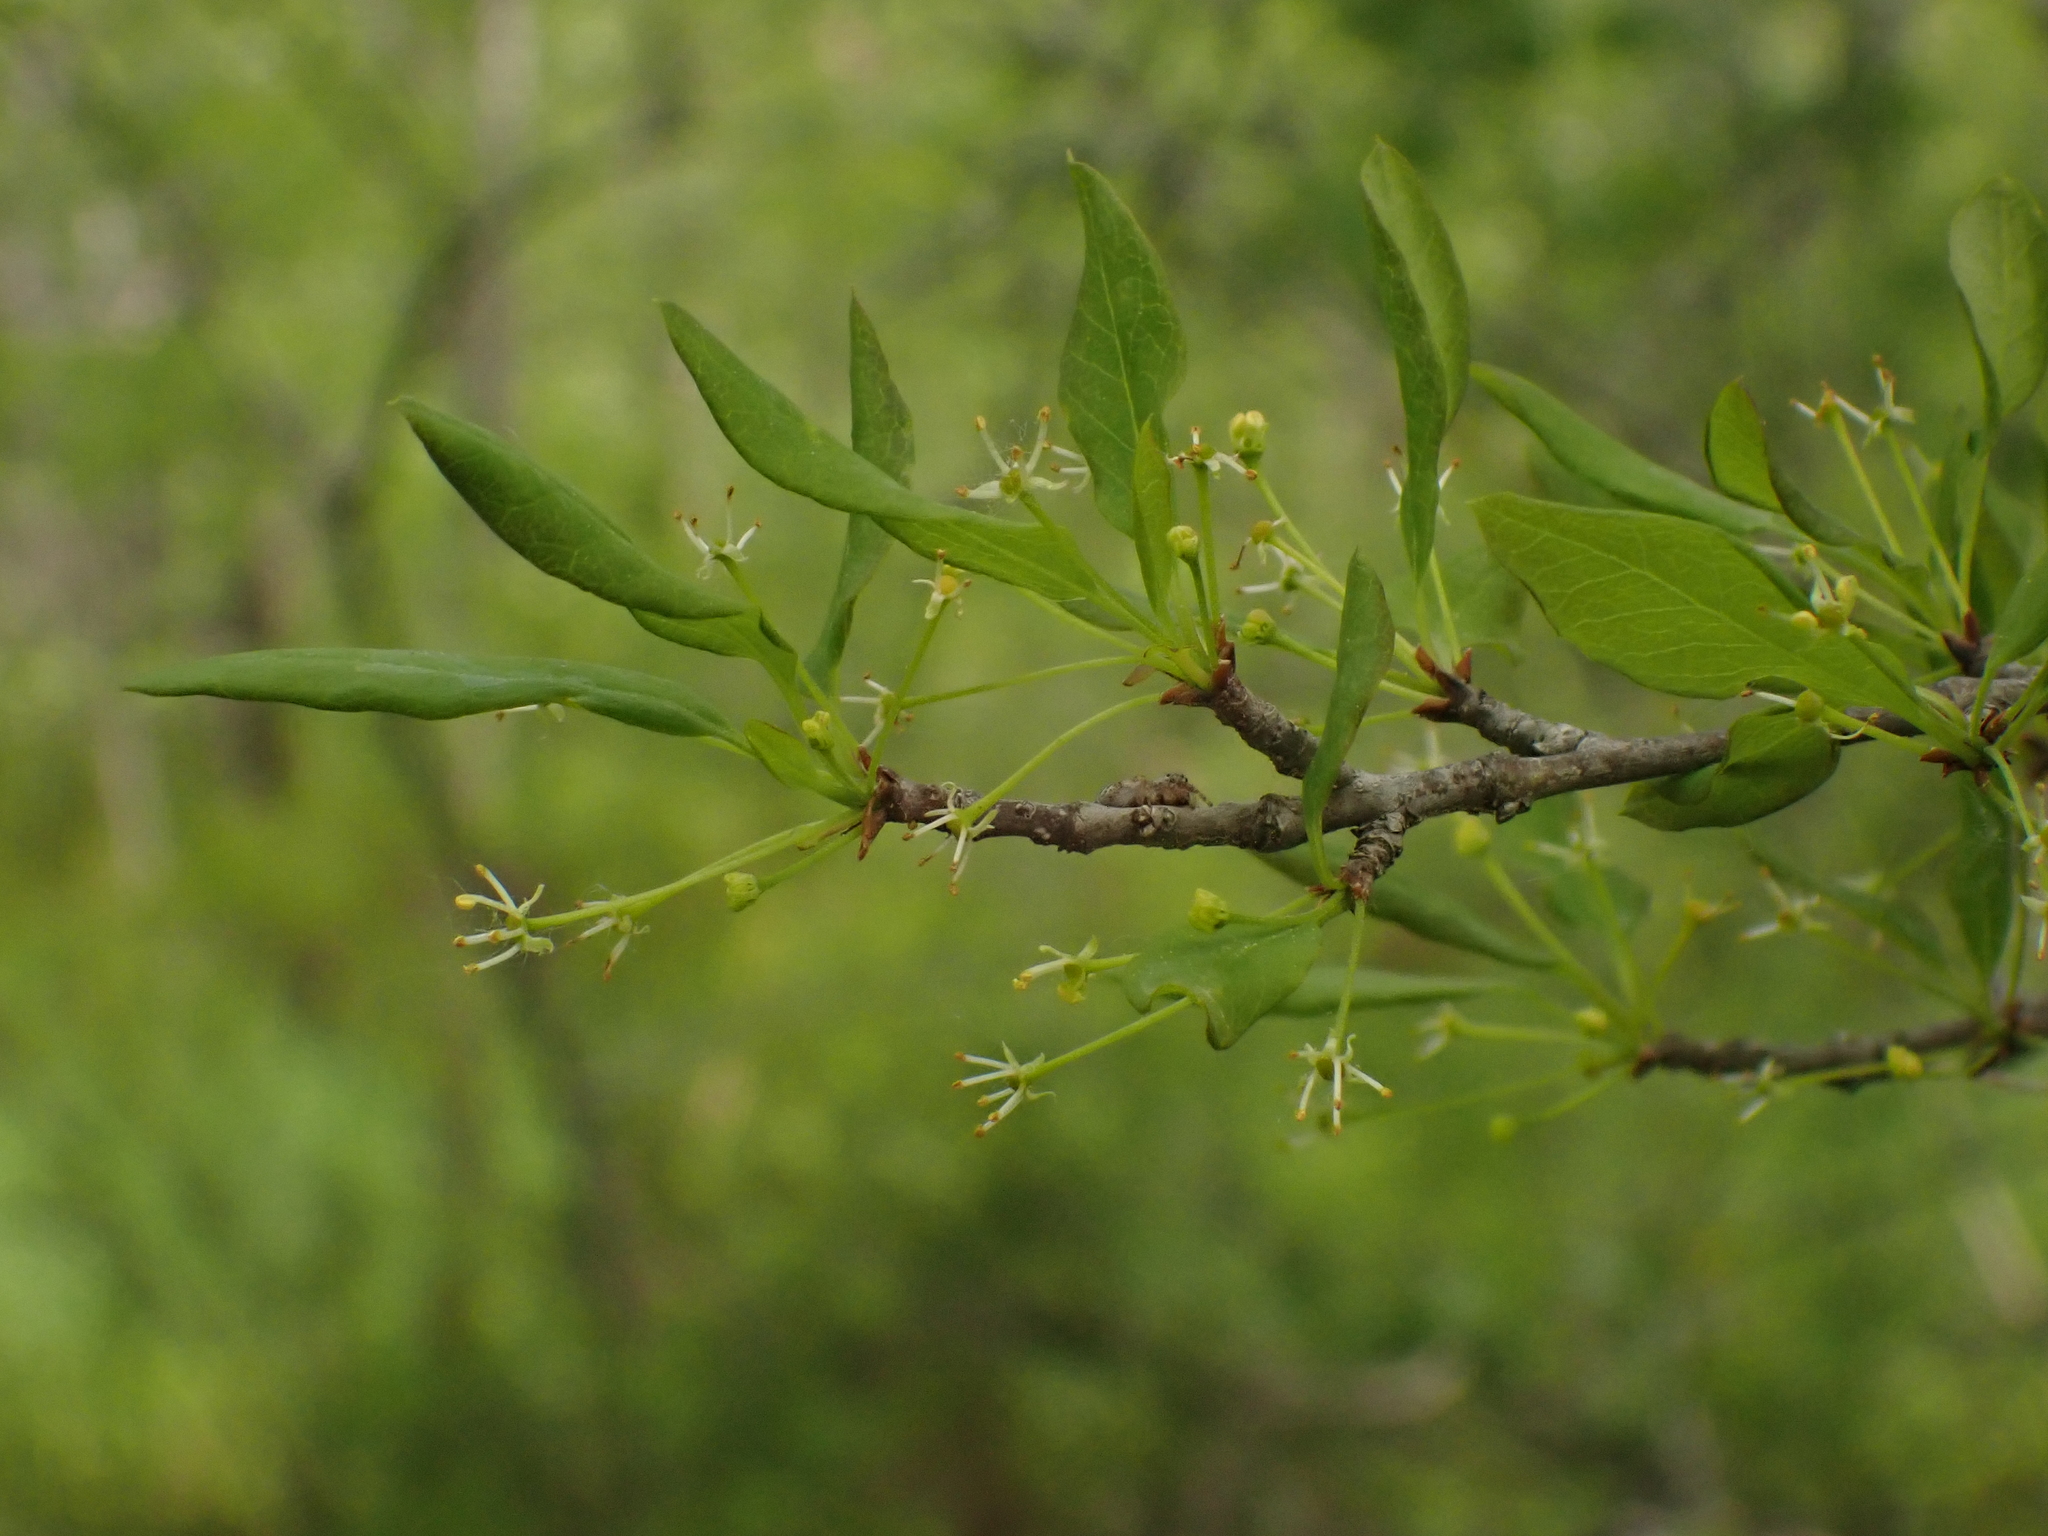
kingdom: Plantae
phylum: Tracheophyta
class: Magnoliopsida
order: Aquifoliales
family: Aquifoliaceae
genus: Ilex
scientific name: Ilex mucronata
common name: Catberry
